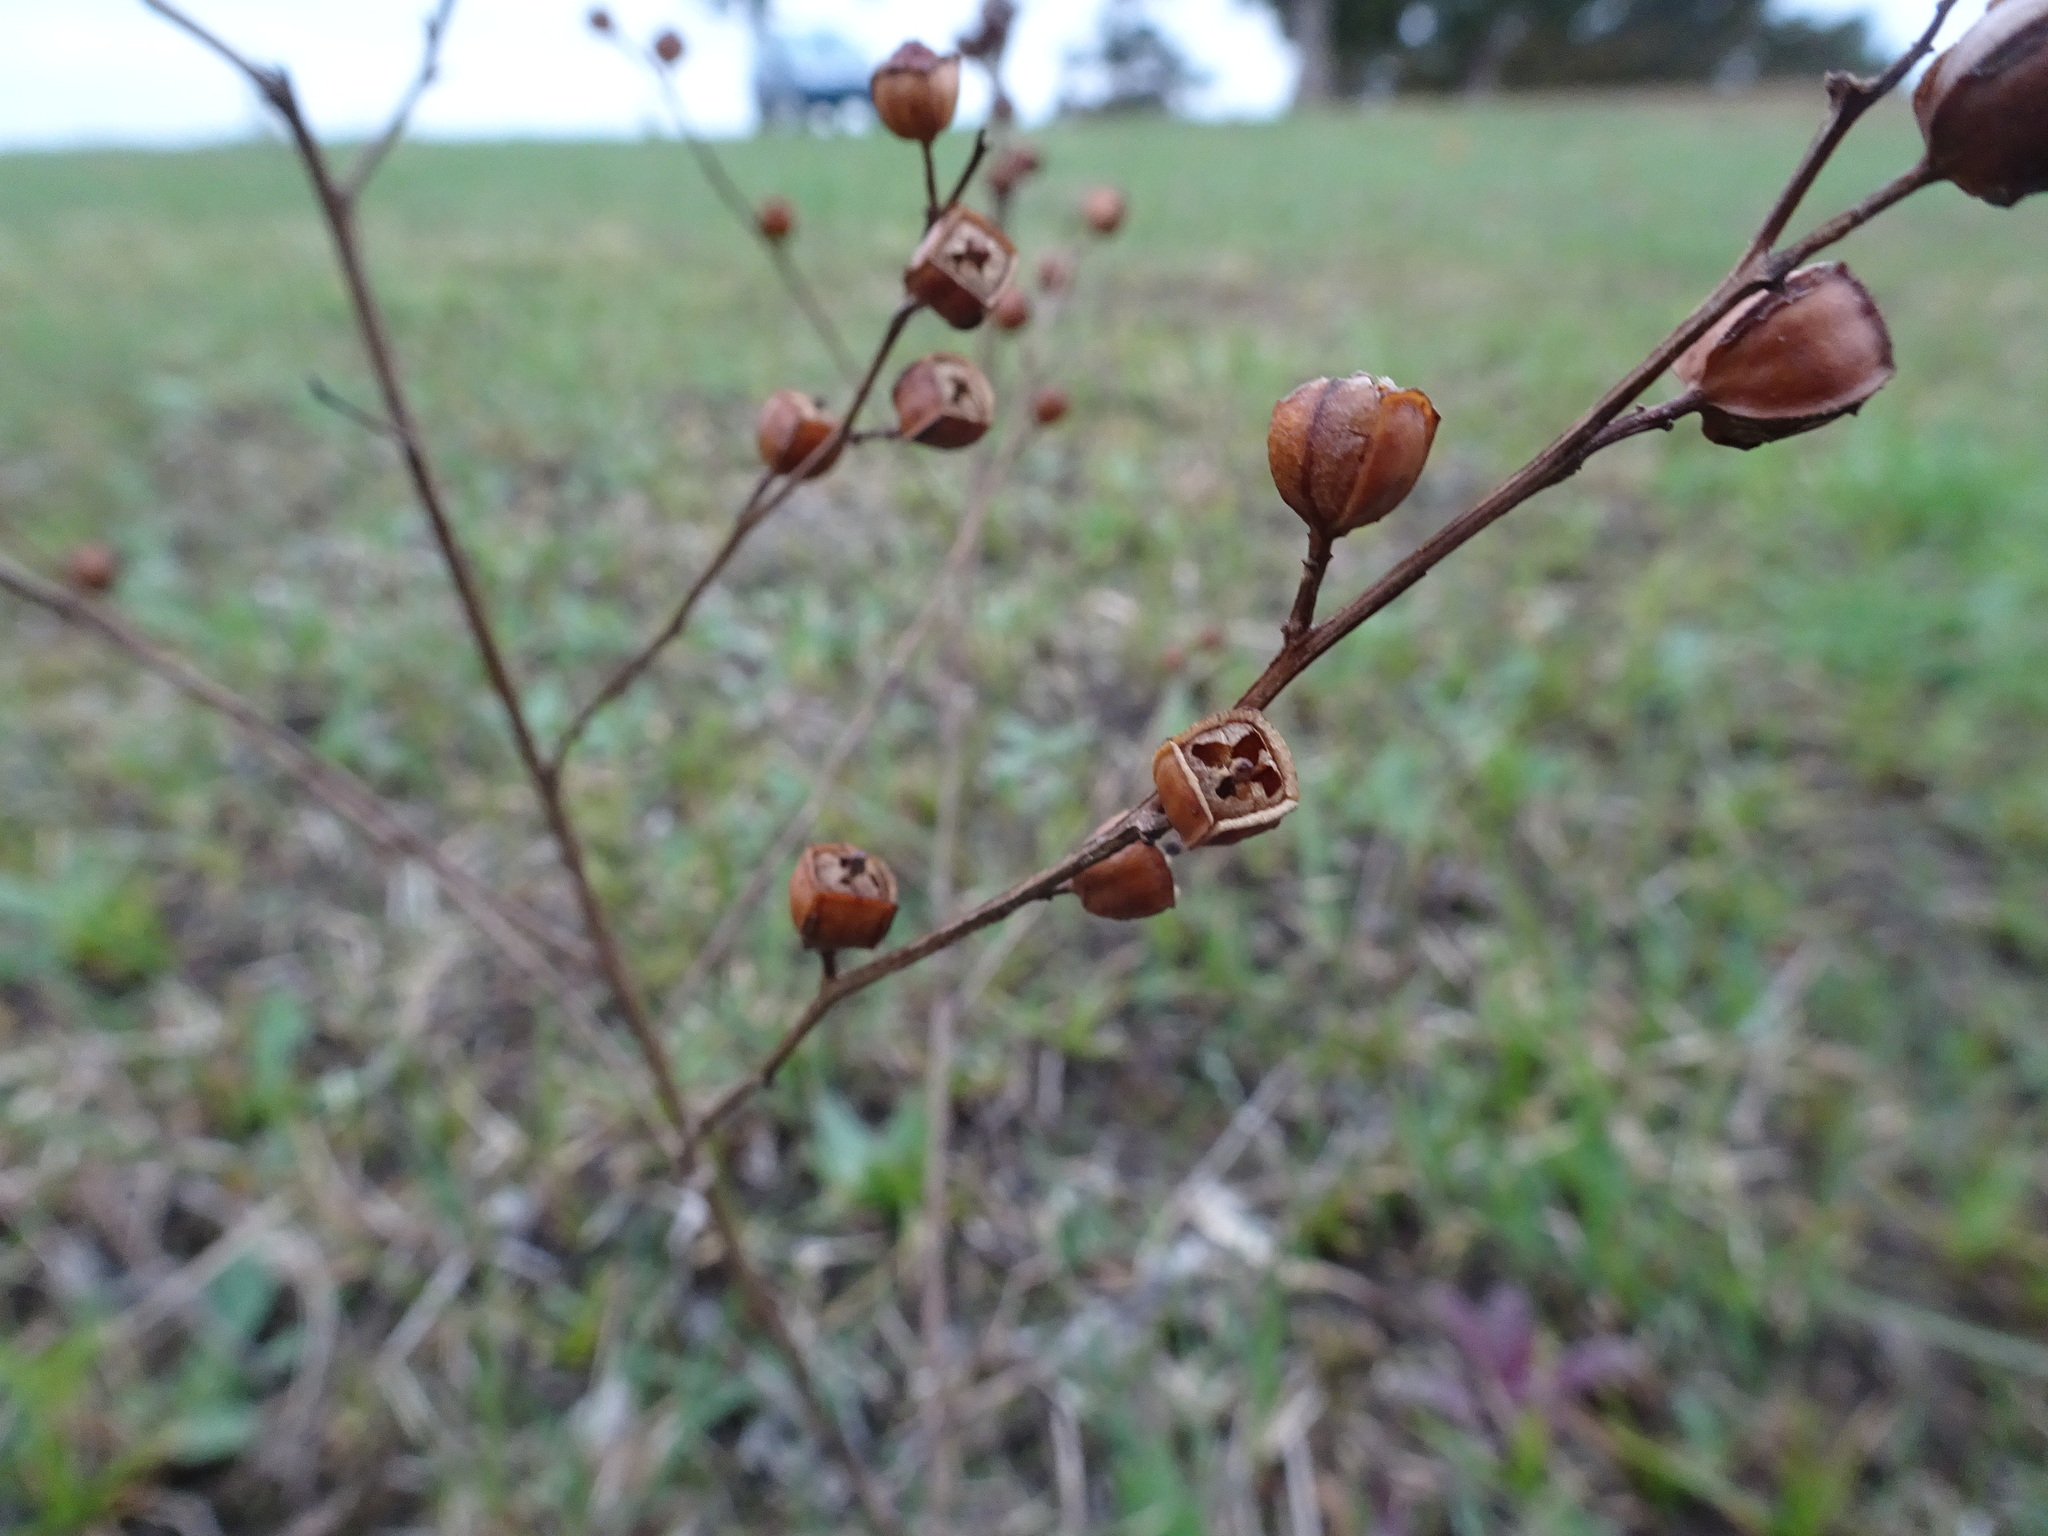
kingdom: Plantae
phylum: Tracheophyta
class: Magnoliopsida
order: Myrtales
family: Onagraceae
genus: Ludwigia
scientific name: Ludwigia alternifolia
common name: Rattlebox
